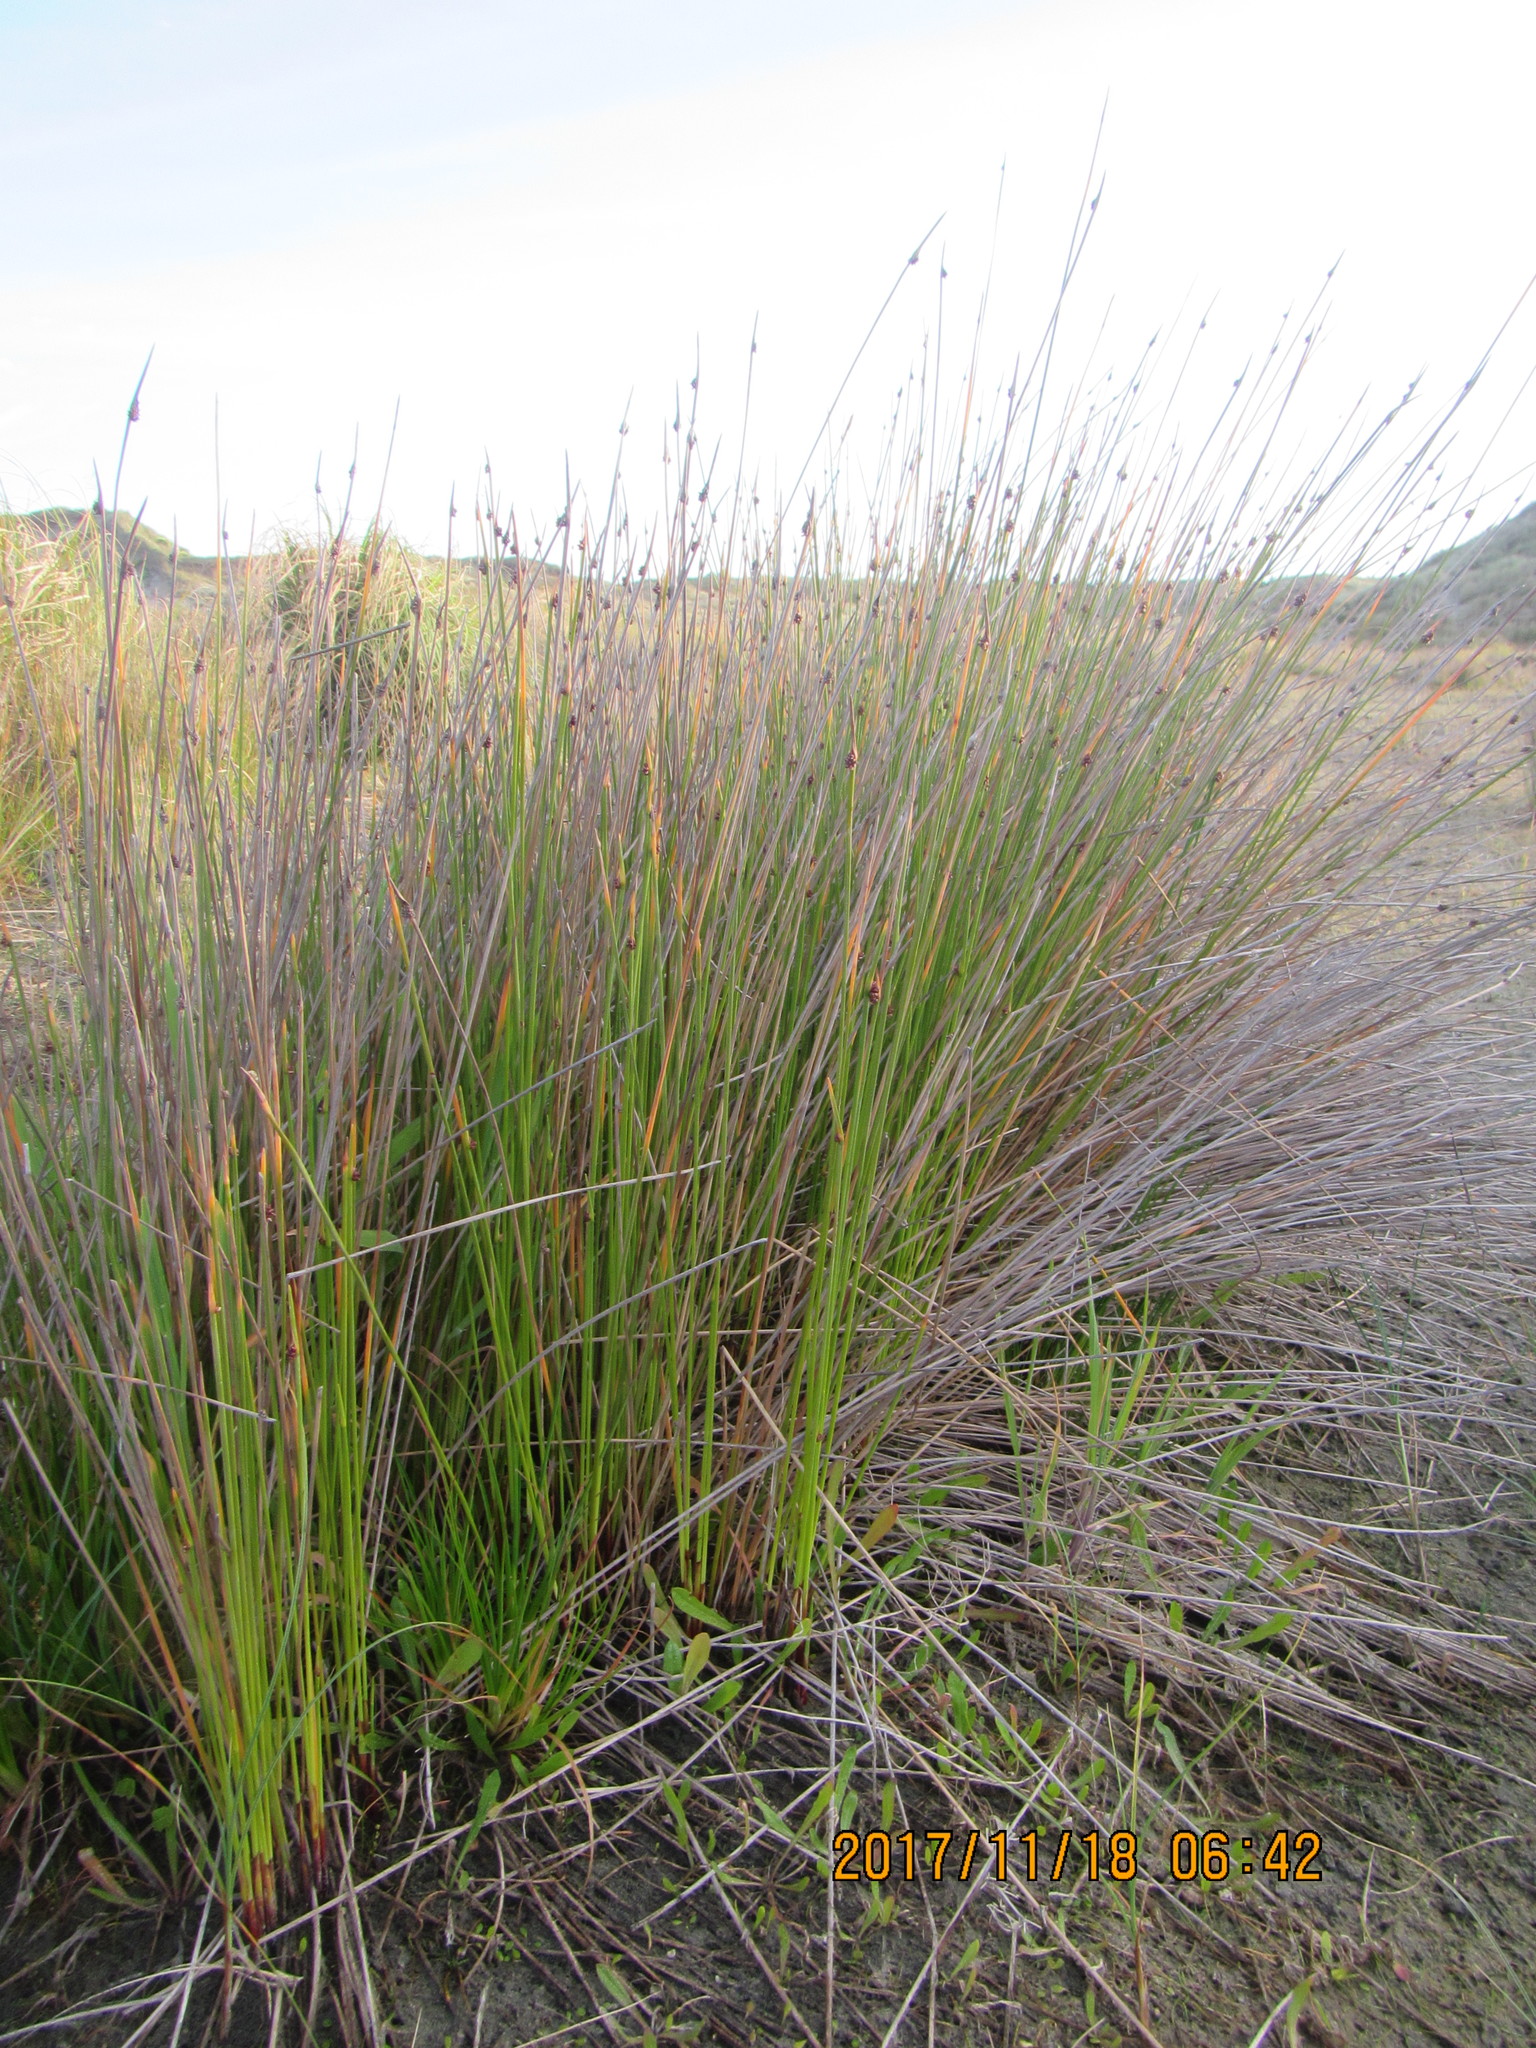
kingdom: Plantae
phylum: Tracheophyta
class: Liliopsida
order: Poales
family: Cyperaceae
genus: Ficinia
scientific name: Ficinia nodosa
